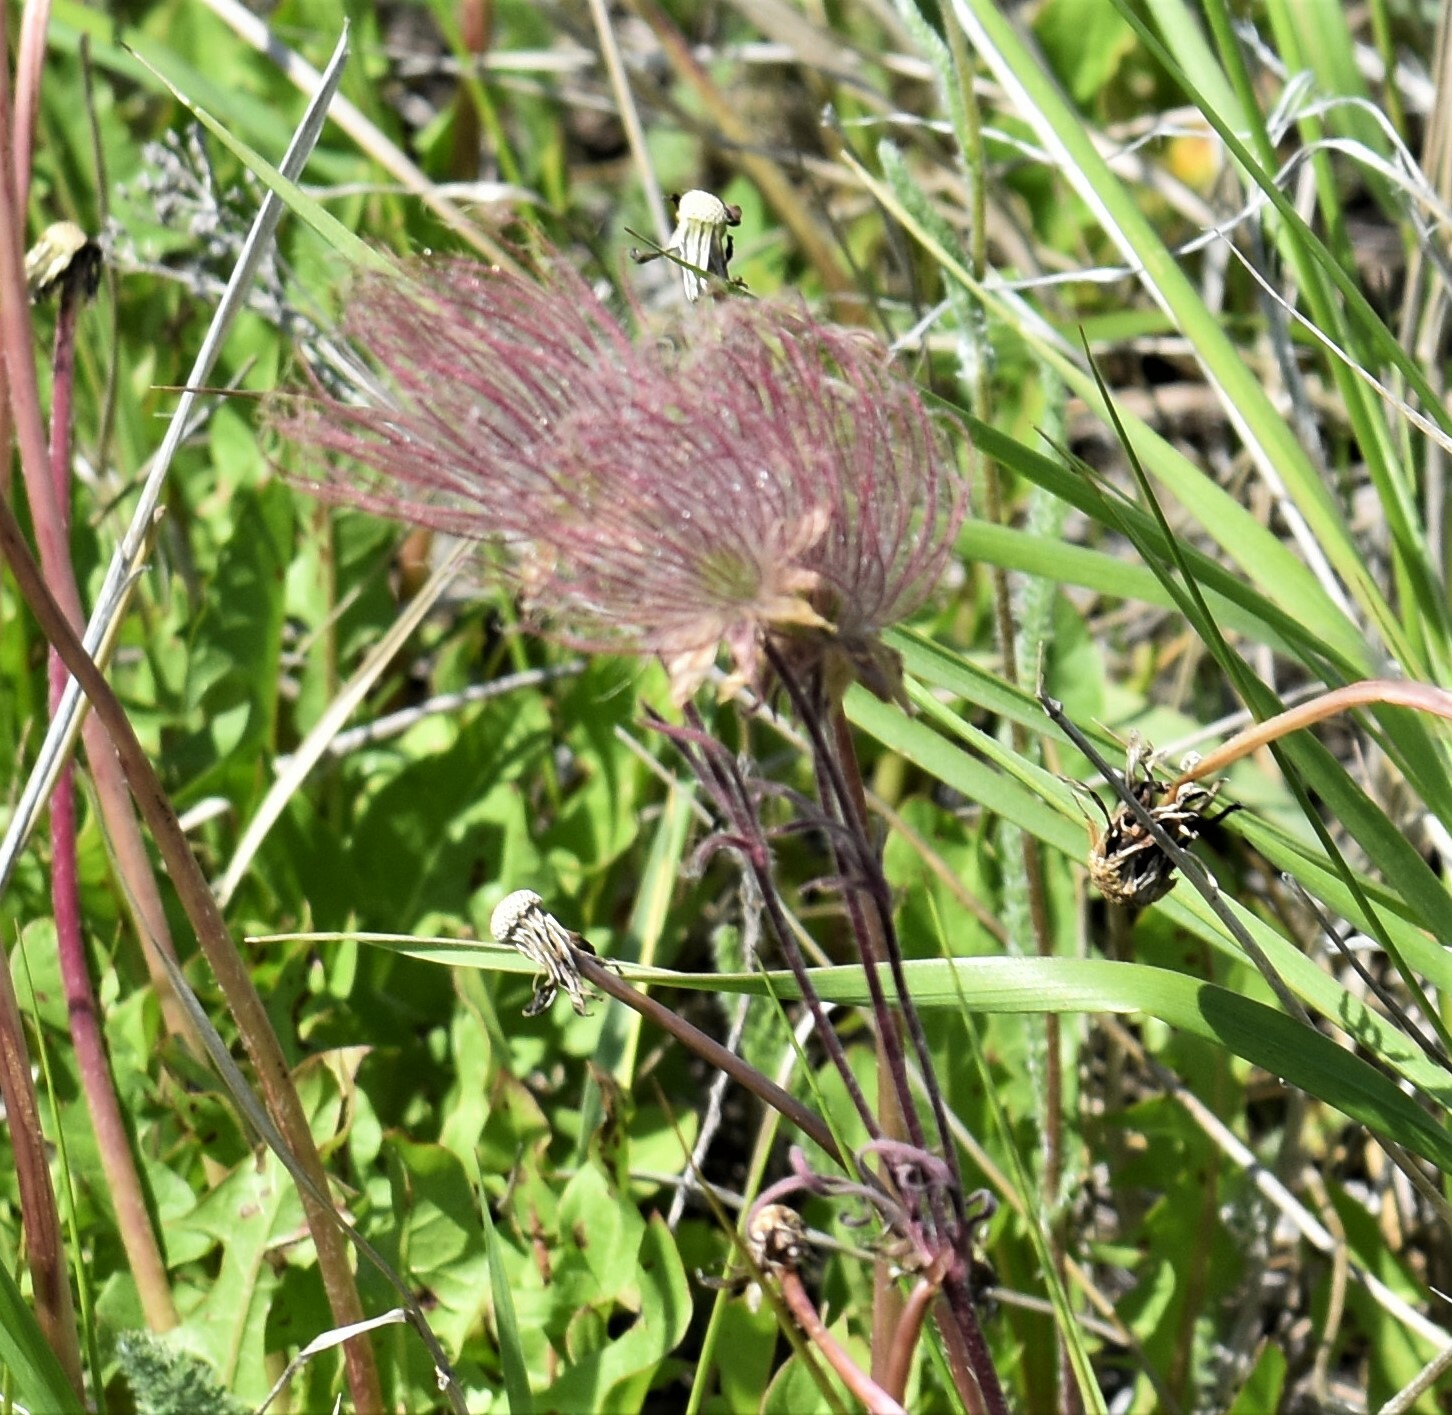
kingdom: Plantae
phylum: Tracheophyta
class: Magnoliopsida
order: Rosales
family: Rosaceae
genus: Geum
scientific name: Geum triflorum
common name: Old man's whiskers
